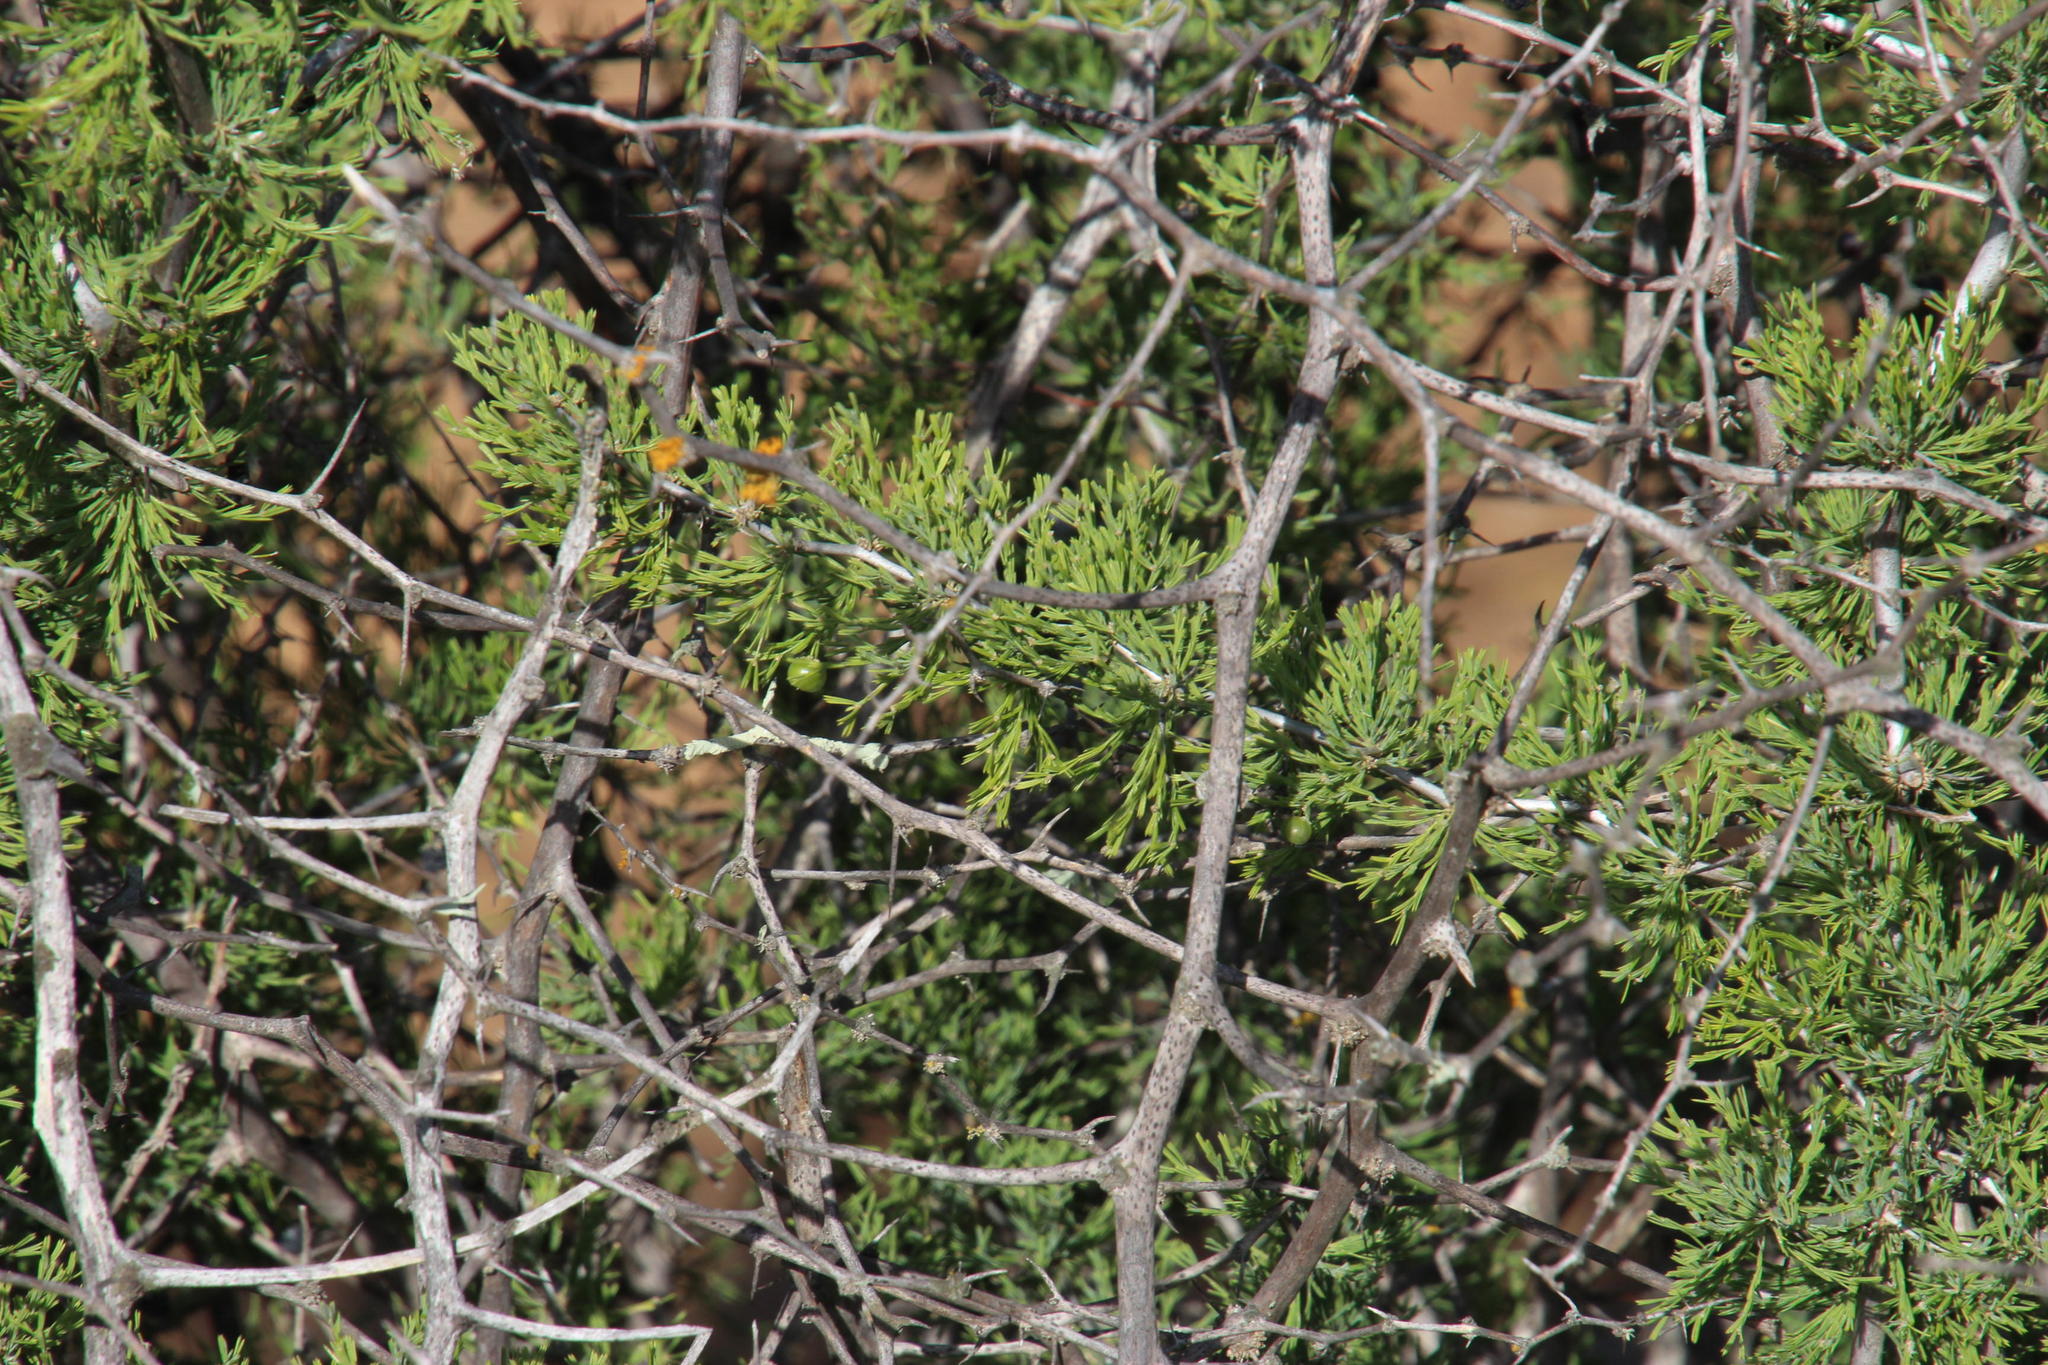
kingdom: Plantae
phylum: Tracheophyta
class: Liliopsida
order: Asparagales
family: Asparagaceae
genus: Asparagus
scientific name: Asparagus burchellii
